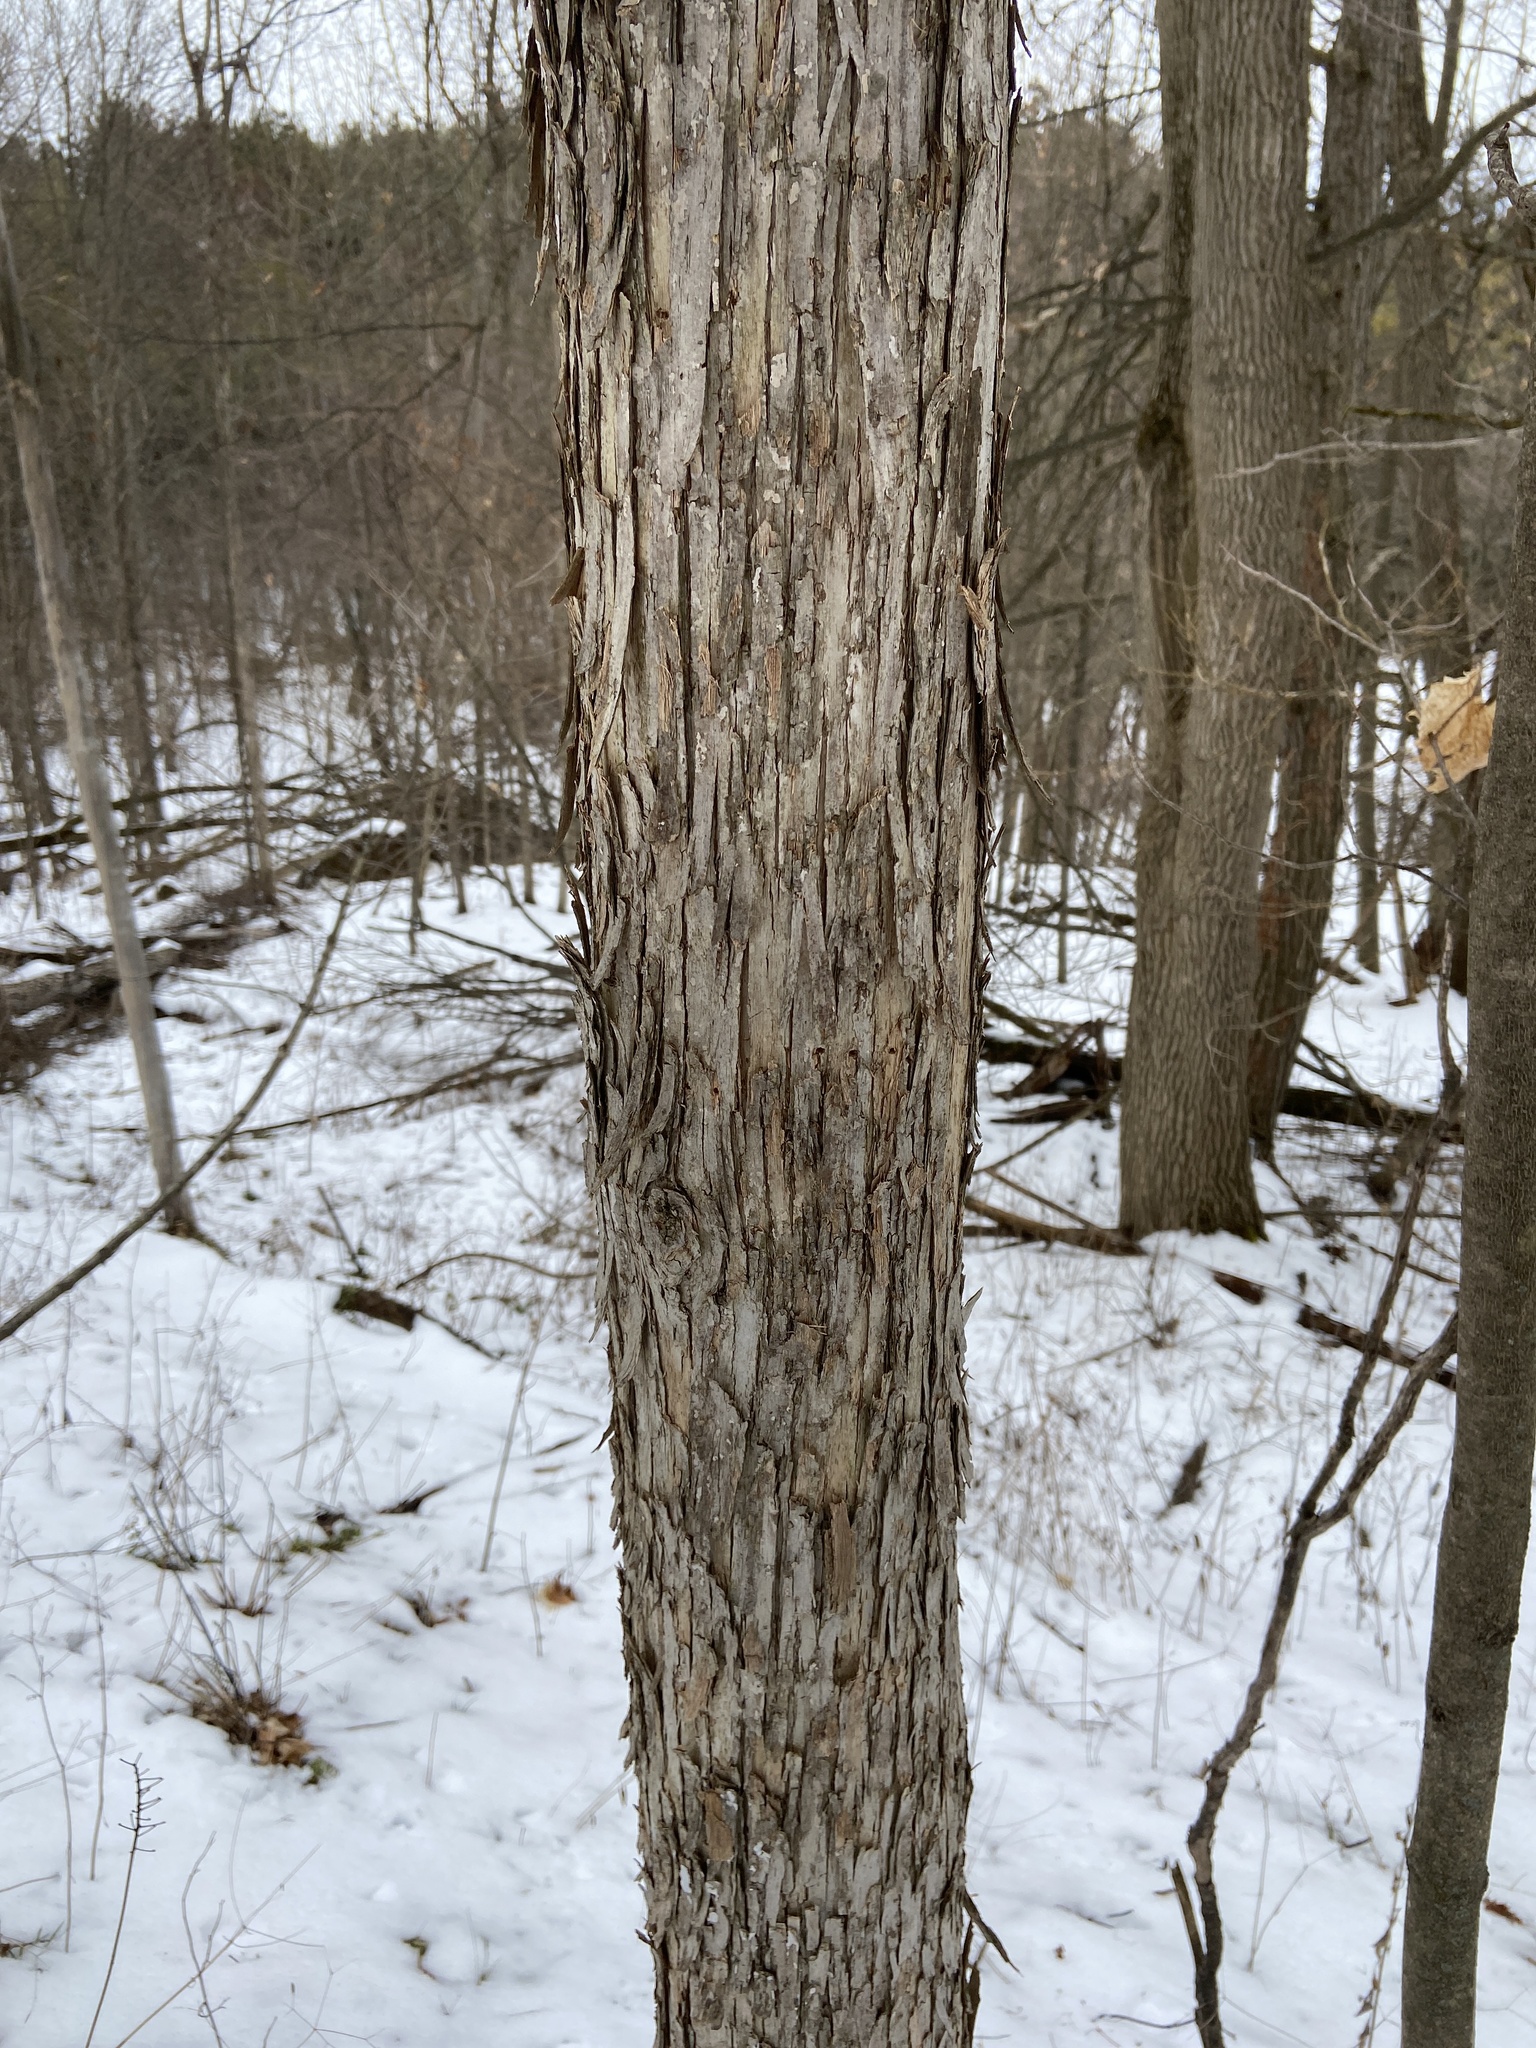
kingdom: Plantae
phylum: Tracheophyta
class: Magnoliopsida
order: Fagales
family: Betulaceae
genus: Ostrya
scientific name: Ostrya virginiana
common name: Ironwood
